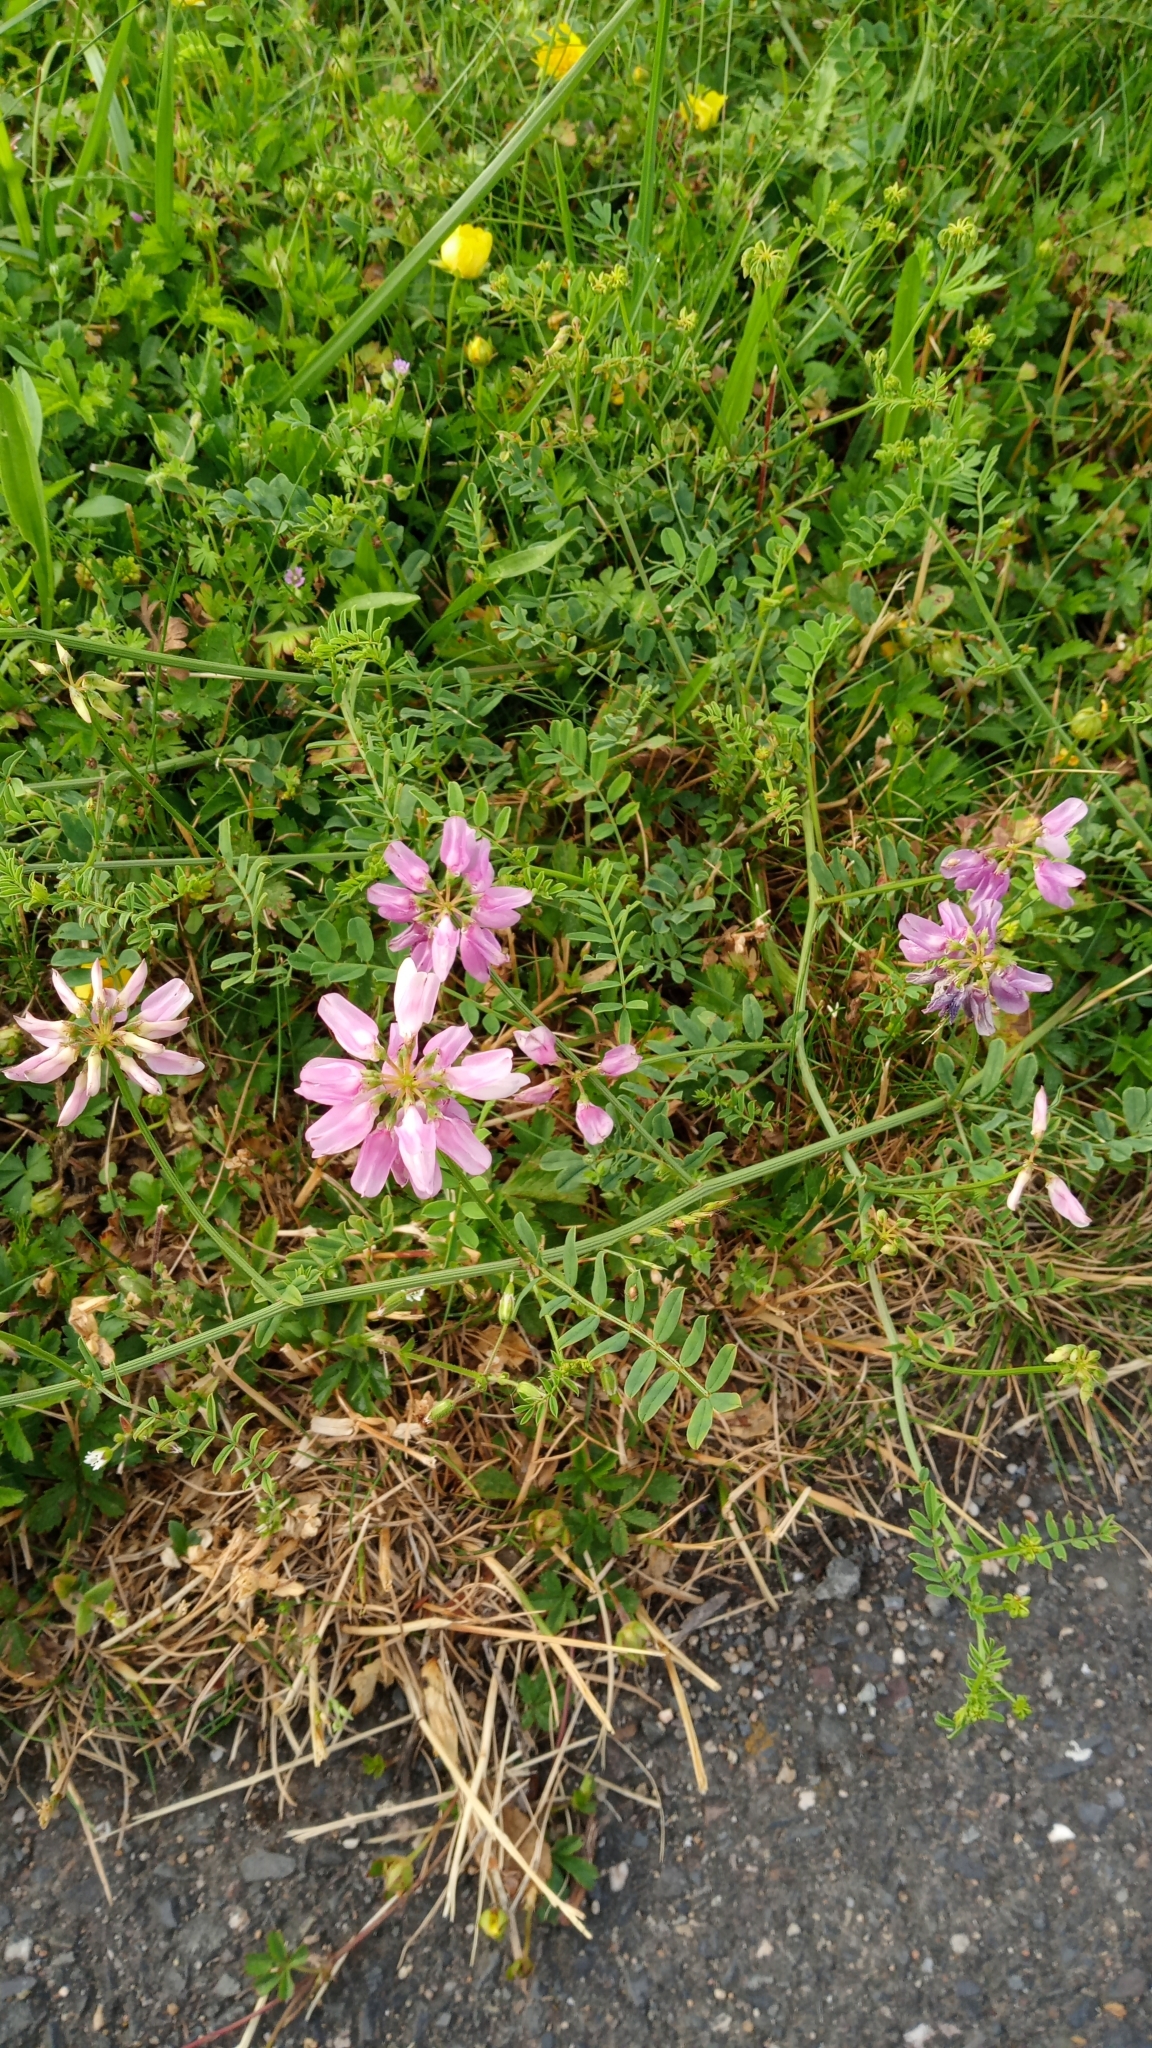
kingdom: Plantae
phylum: Tracheophyta
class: Magnoliopsida
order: Fabales
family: Fabaceae
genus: Coronilla
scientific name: Coronilla varia
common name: Crownvetch
